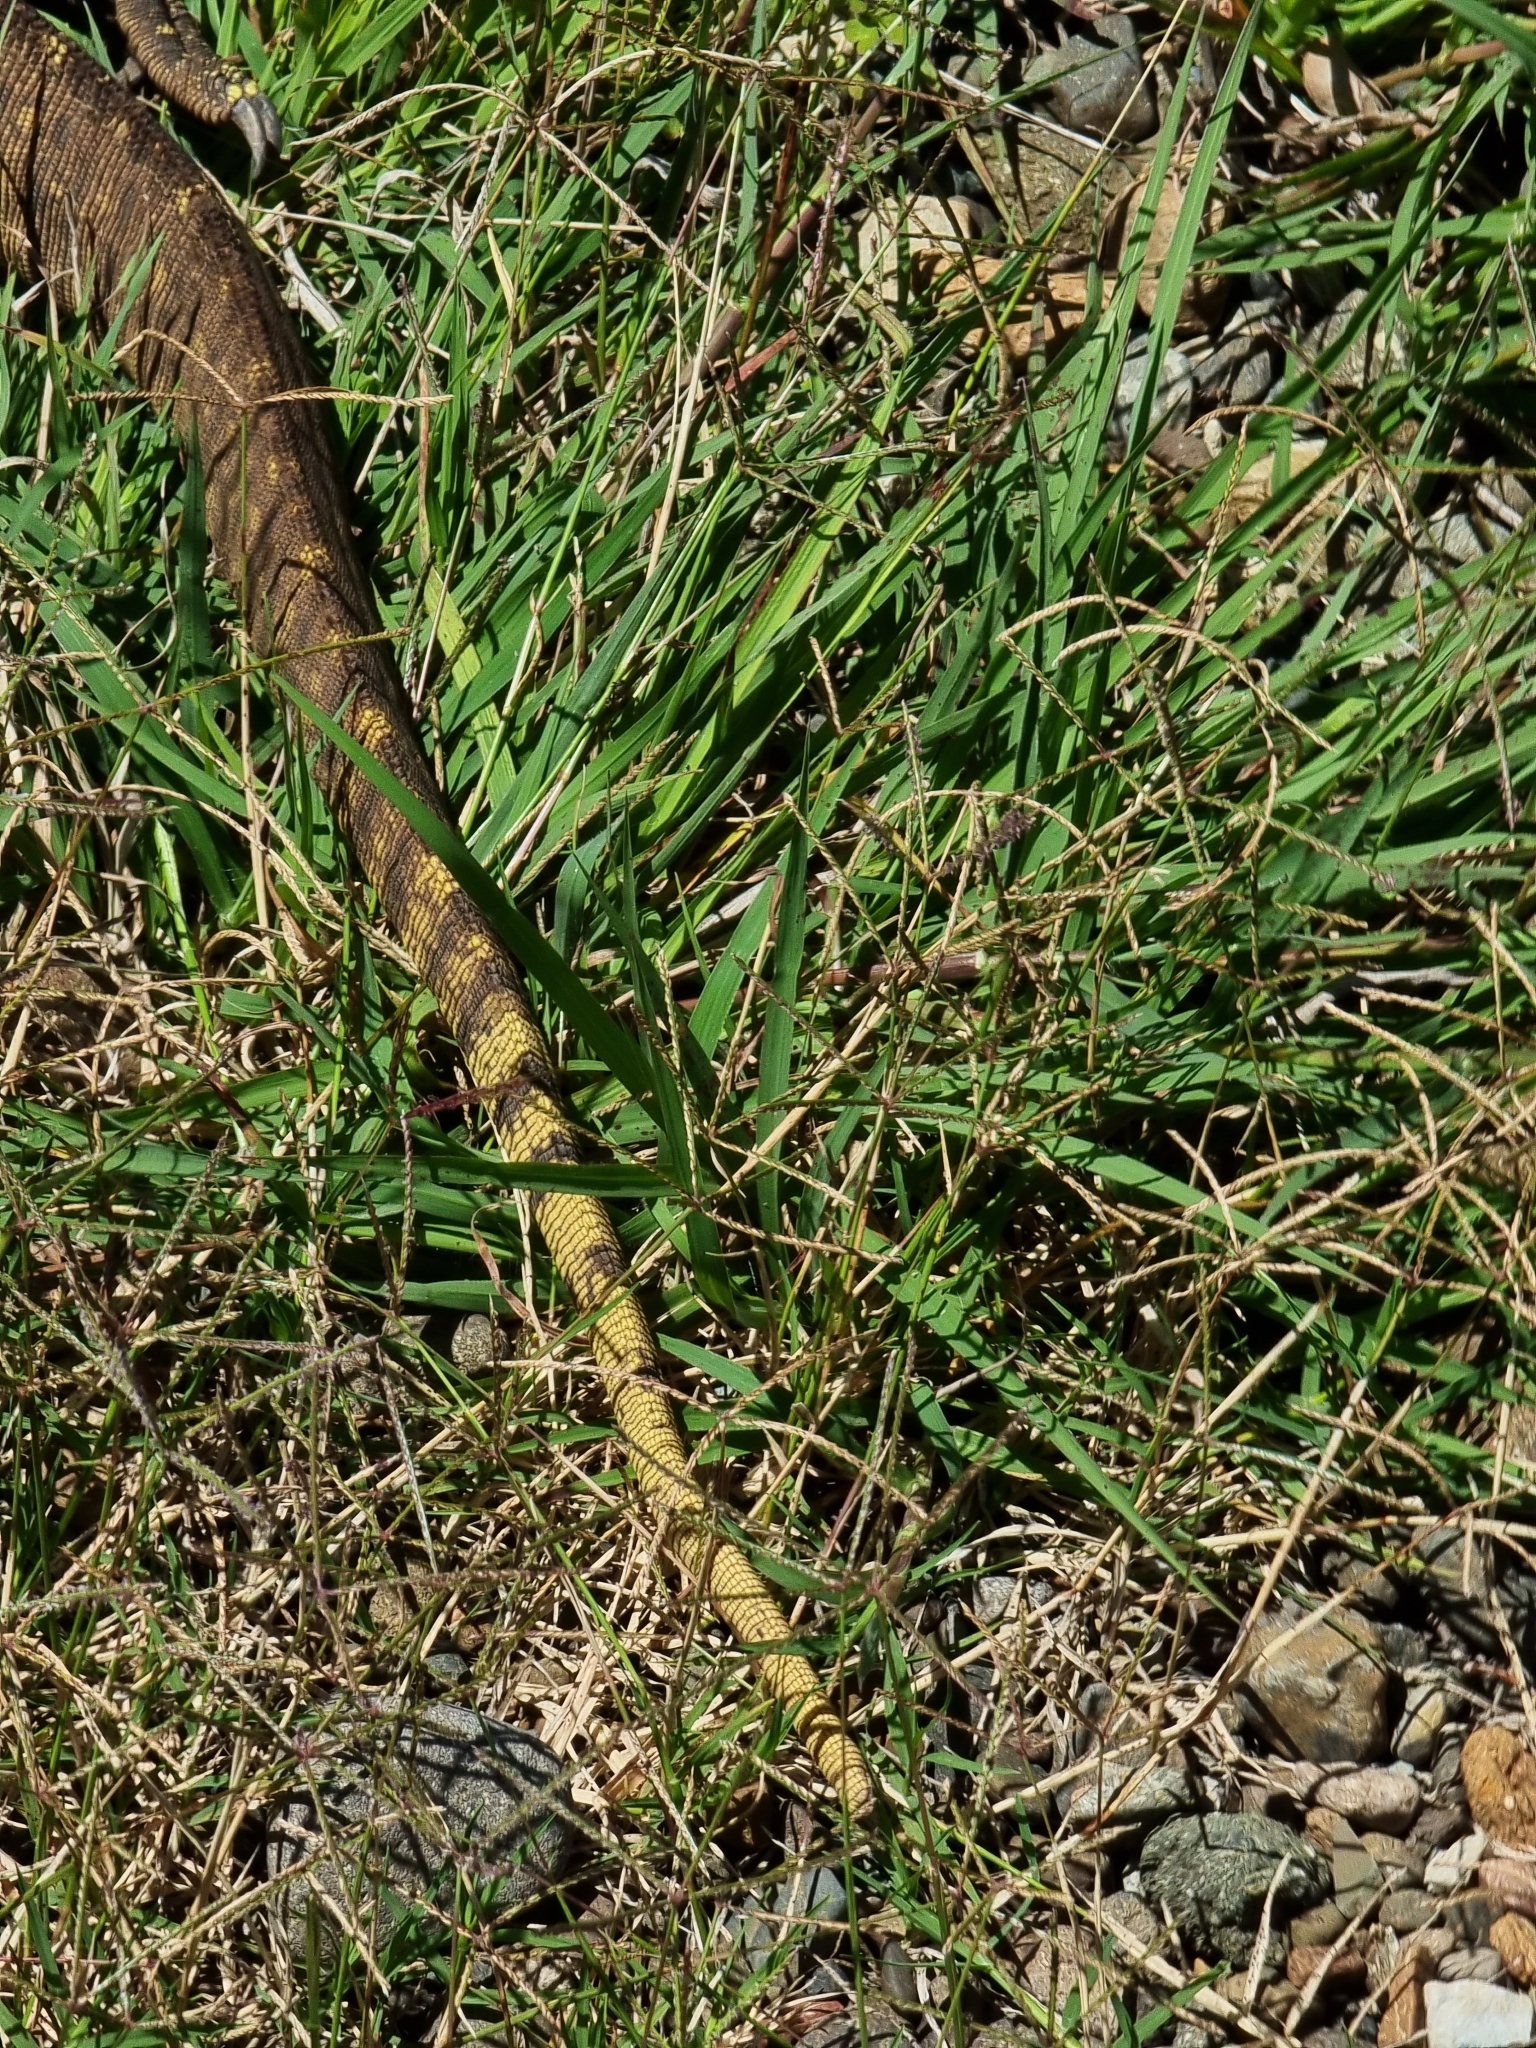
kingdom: Animalia
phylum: Chordata
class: Squamata
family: Varanidae
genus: Varanus
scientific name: Varanus panoptes
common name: Yellow-spotted monitor
